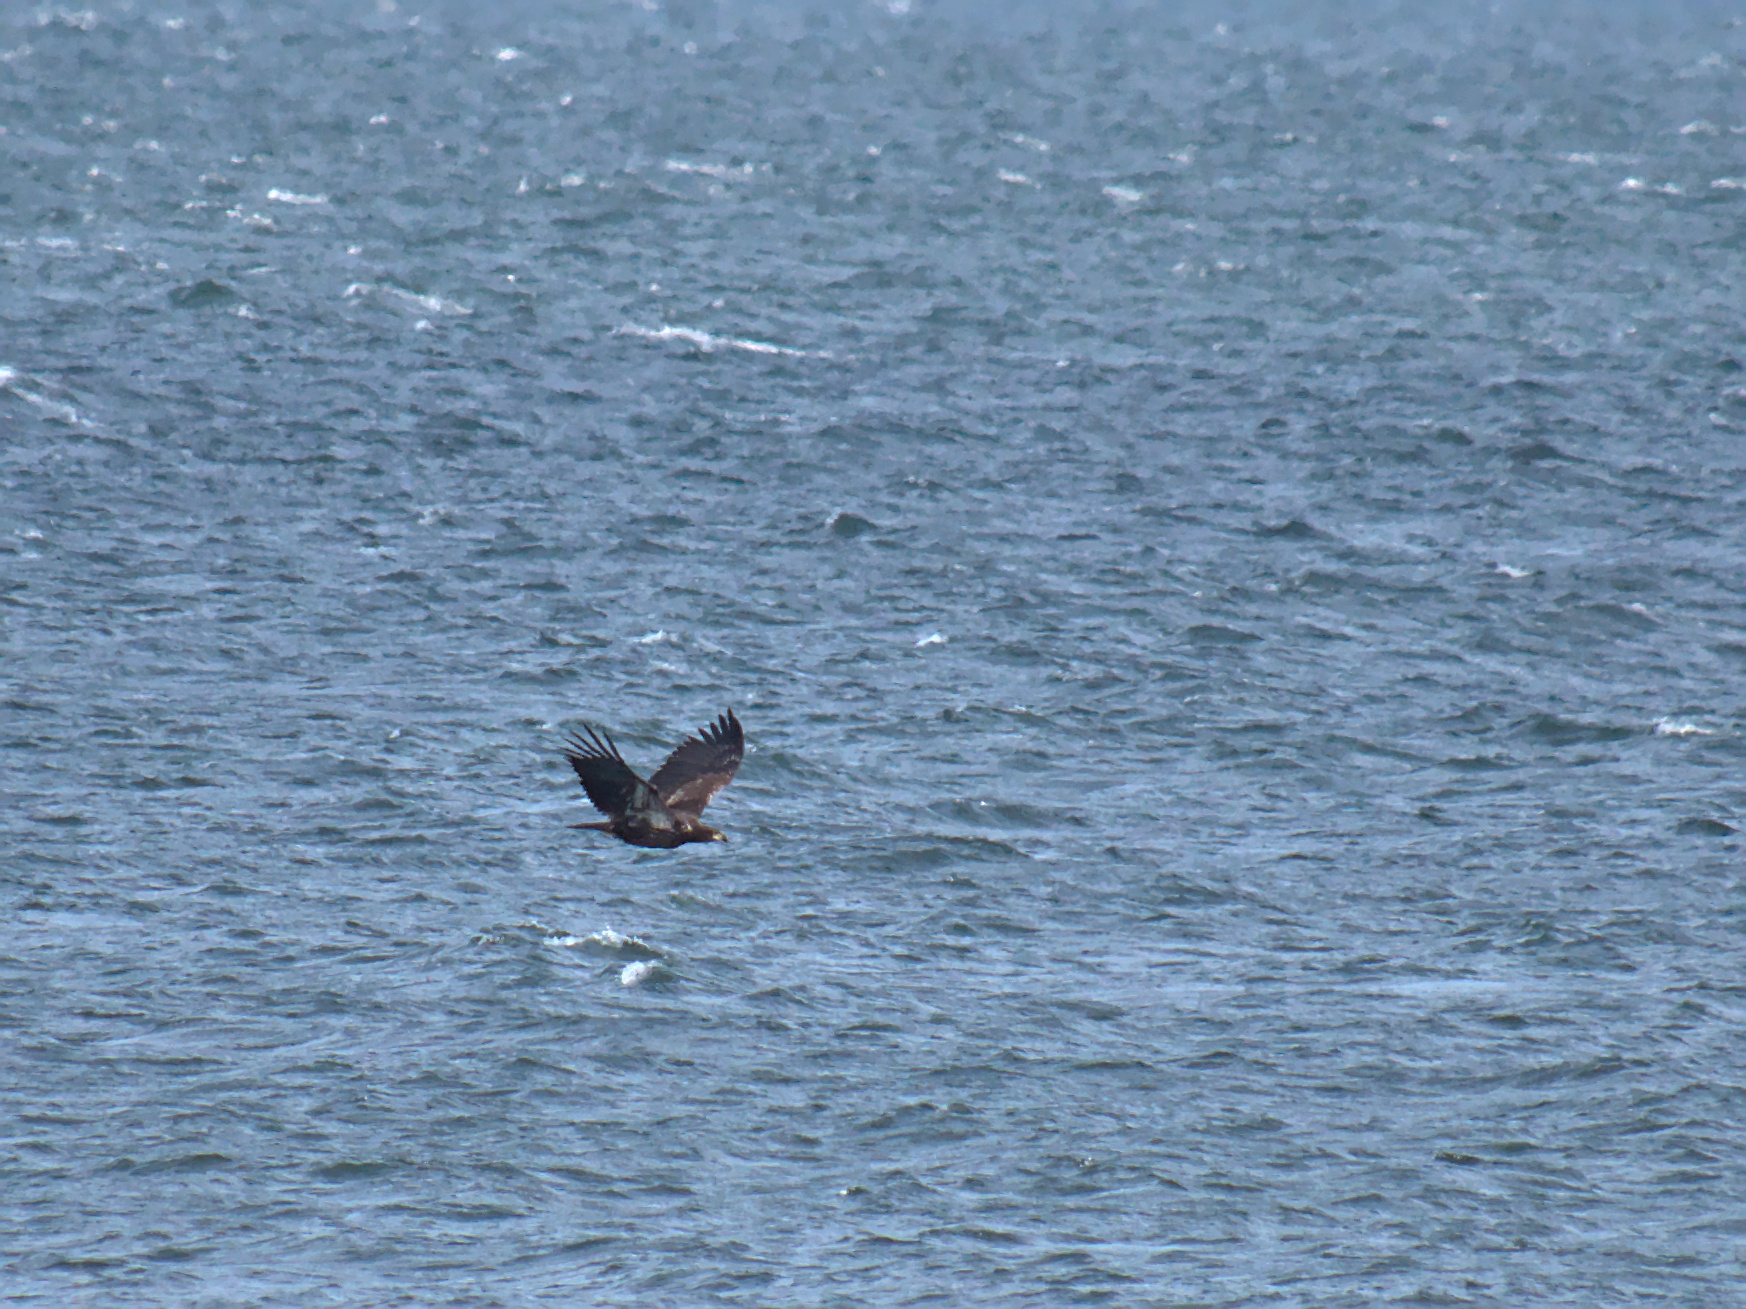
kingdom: Animalia
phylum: Chordata
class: Aves
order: Accipitriformes
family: Accipitridae
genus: Haliaeetus
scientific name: Haliaeetus leucocephalus
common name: Bald eagle
